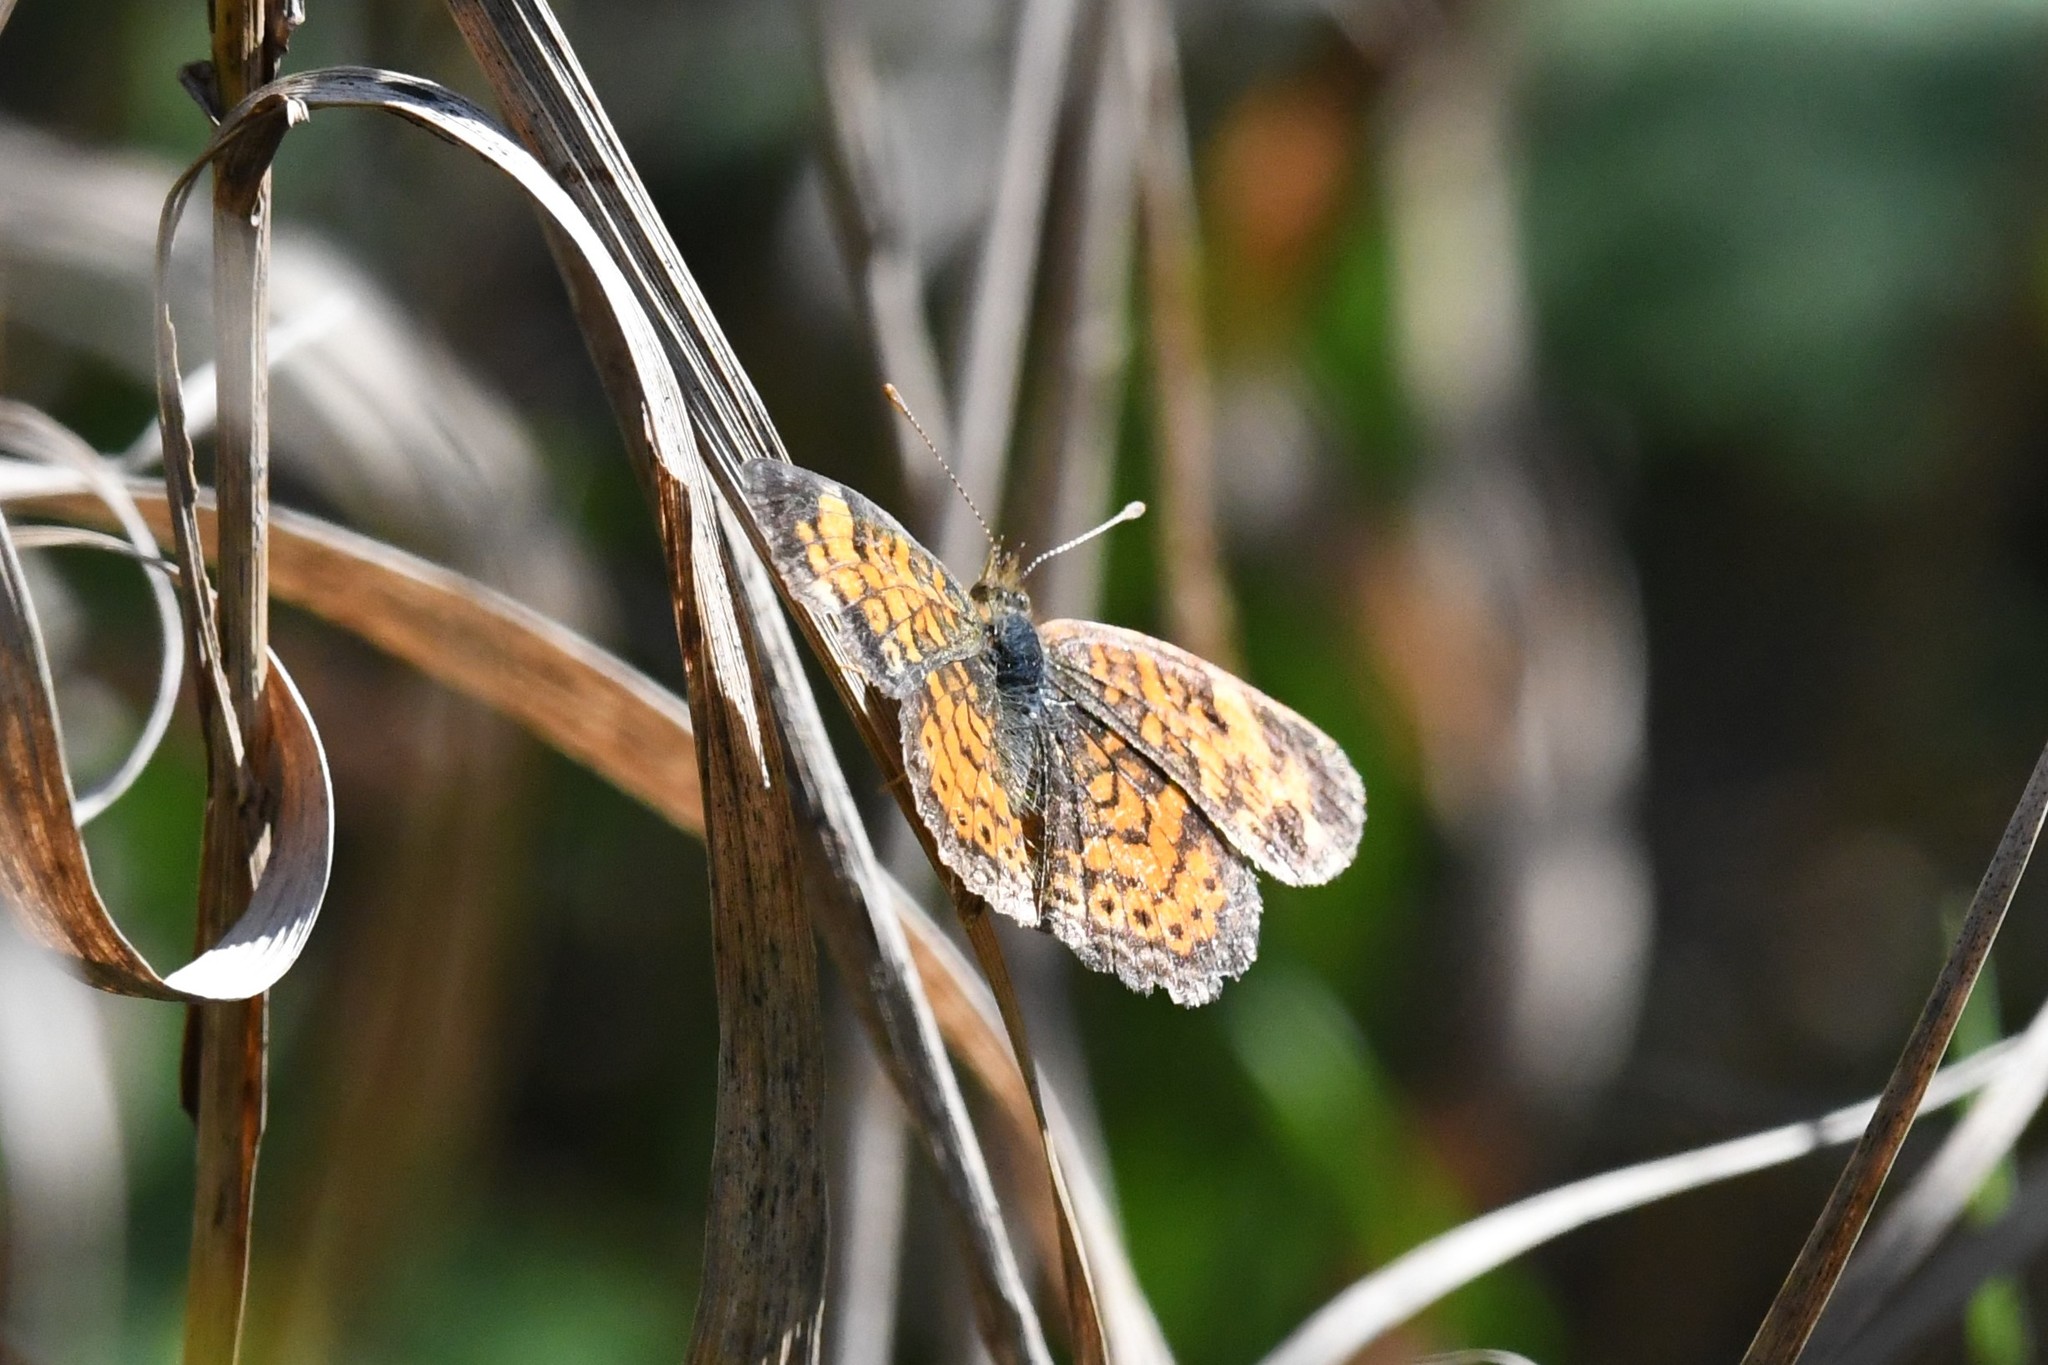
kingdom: Animalia
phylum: Arthropoda
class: Insecta
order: Lepidoptera
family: Nymphalidae
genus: Phyciodes
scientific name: Phyciodes tharos
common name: Pearl crescent
